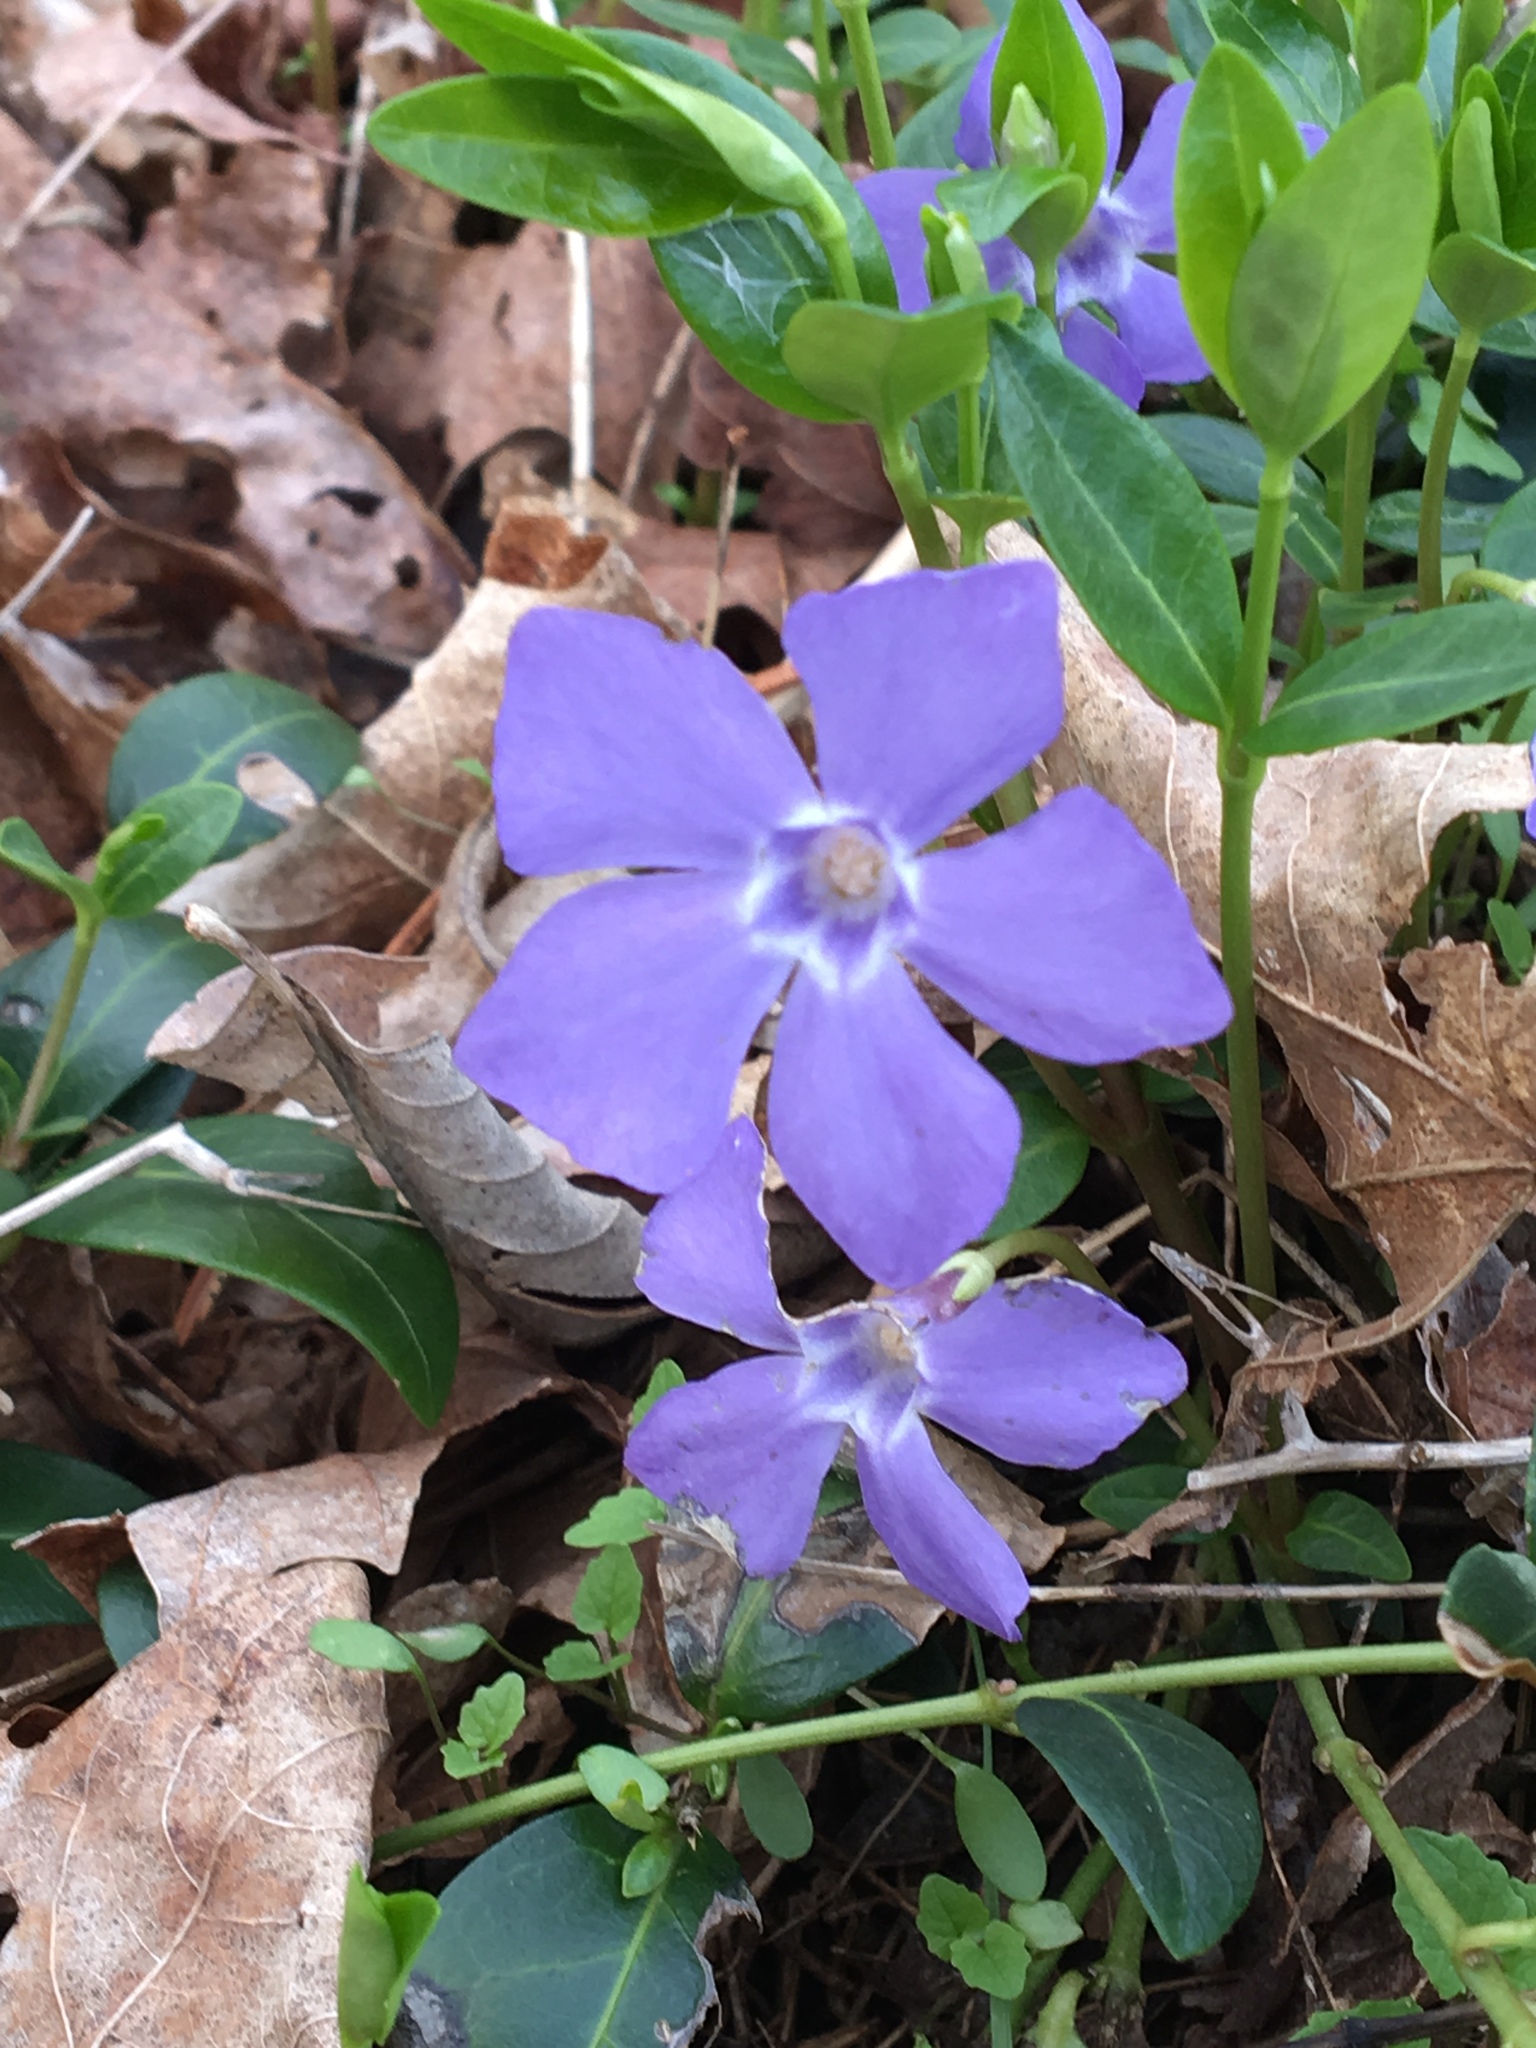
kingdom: Plantae
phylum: Tracheophyta
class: Magnoliopsida
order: Gentianales
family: Apocynaceae
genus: Vinca
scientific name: Vinca minor
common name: Lesser periwinkle
